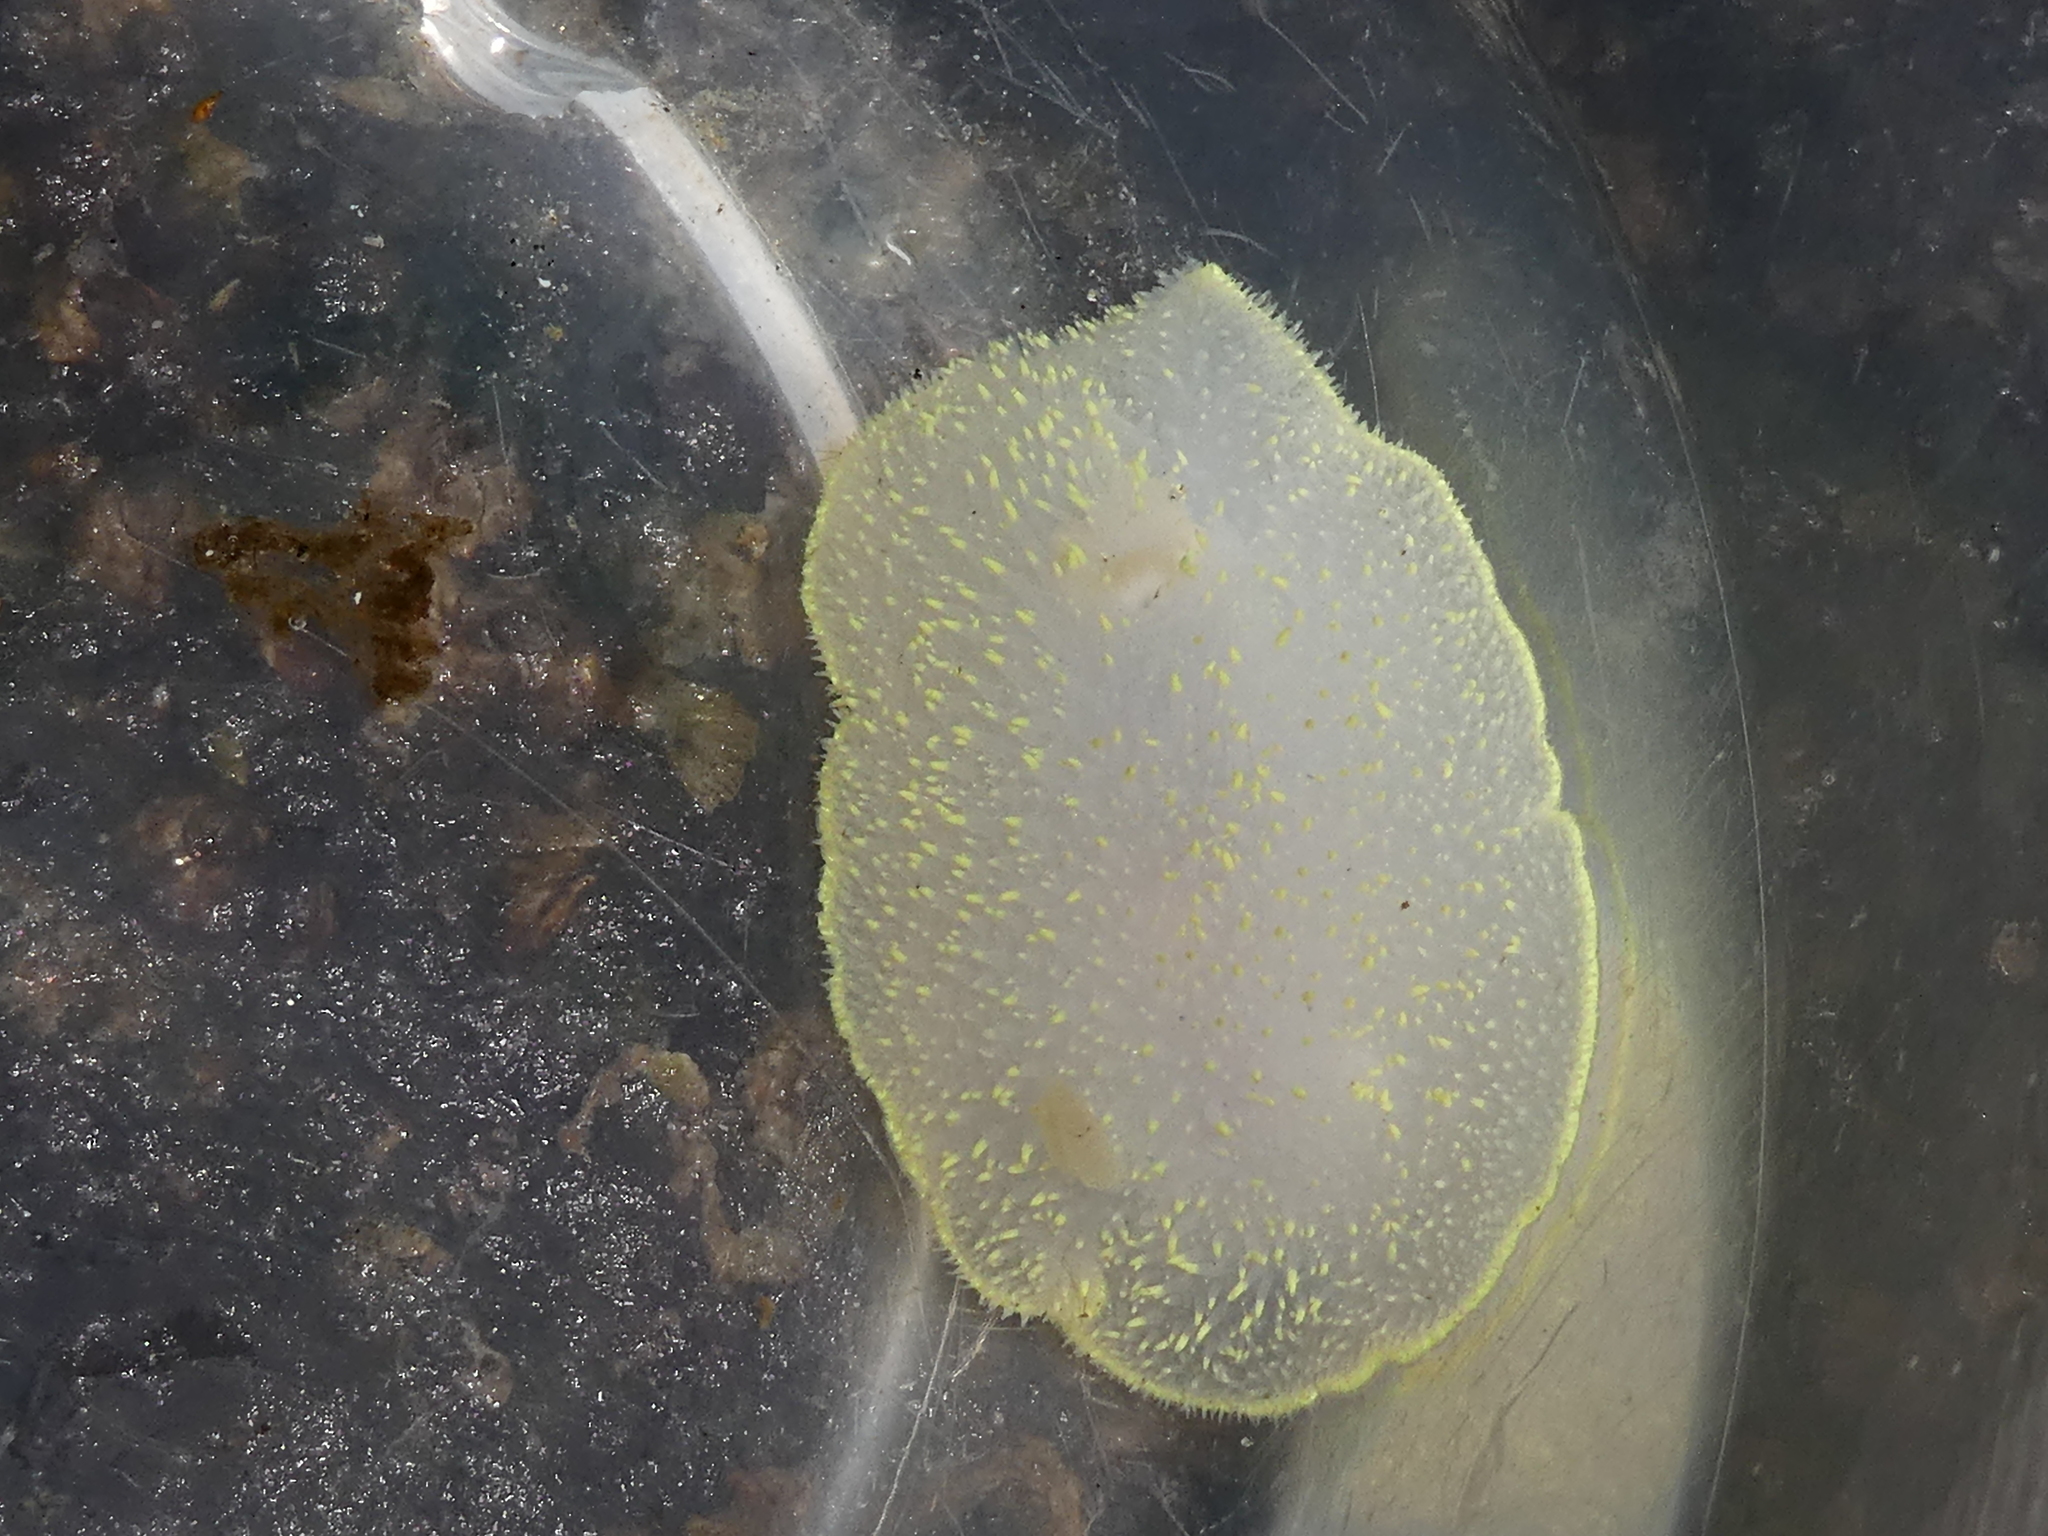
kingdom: Animalia
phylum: Mollusca
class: Gastropoda
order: Nudibranchia
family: Onchidorididae
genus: Acanthodoris
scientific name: Acanthodoris hudsoni
